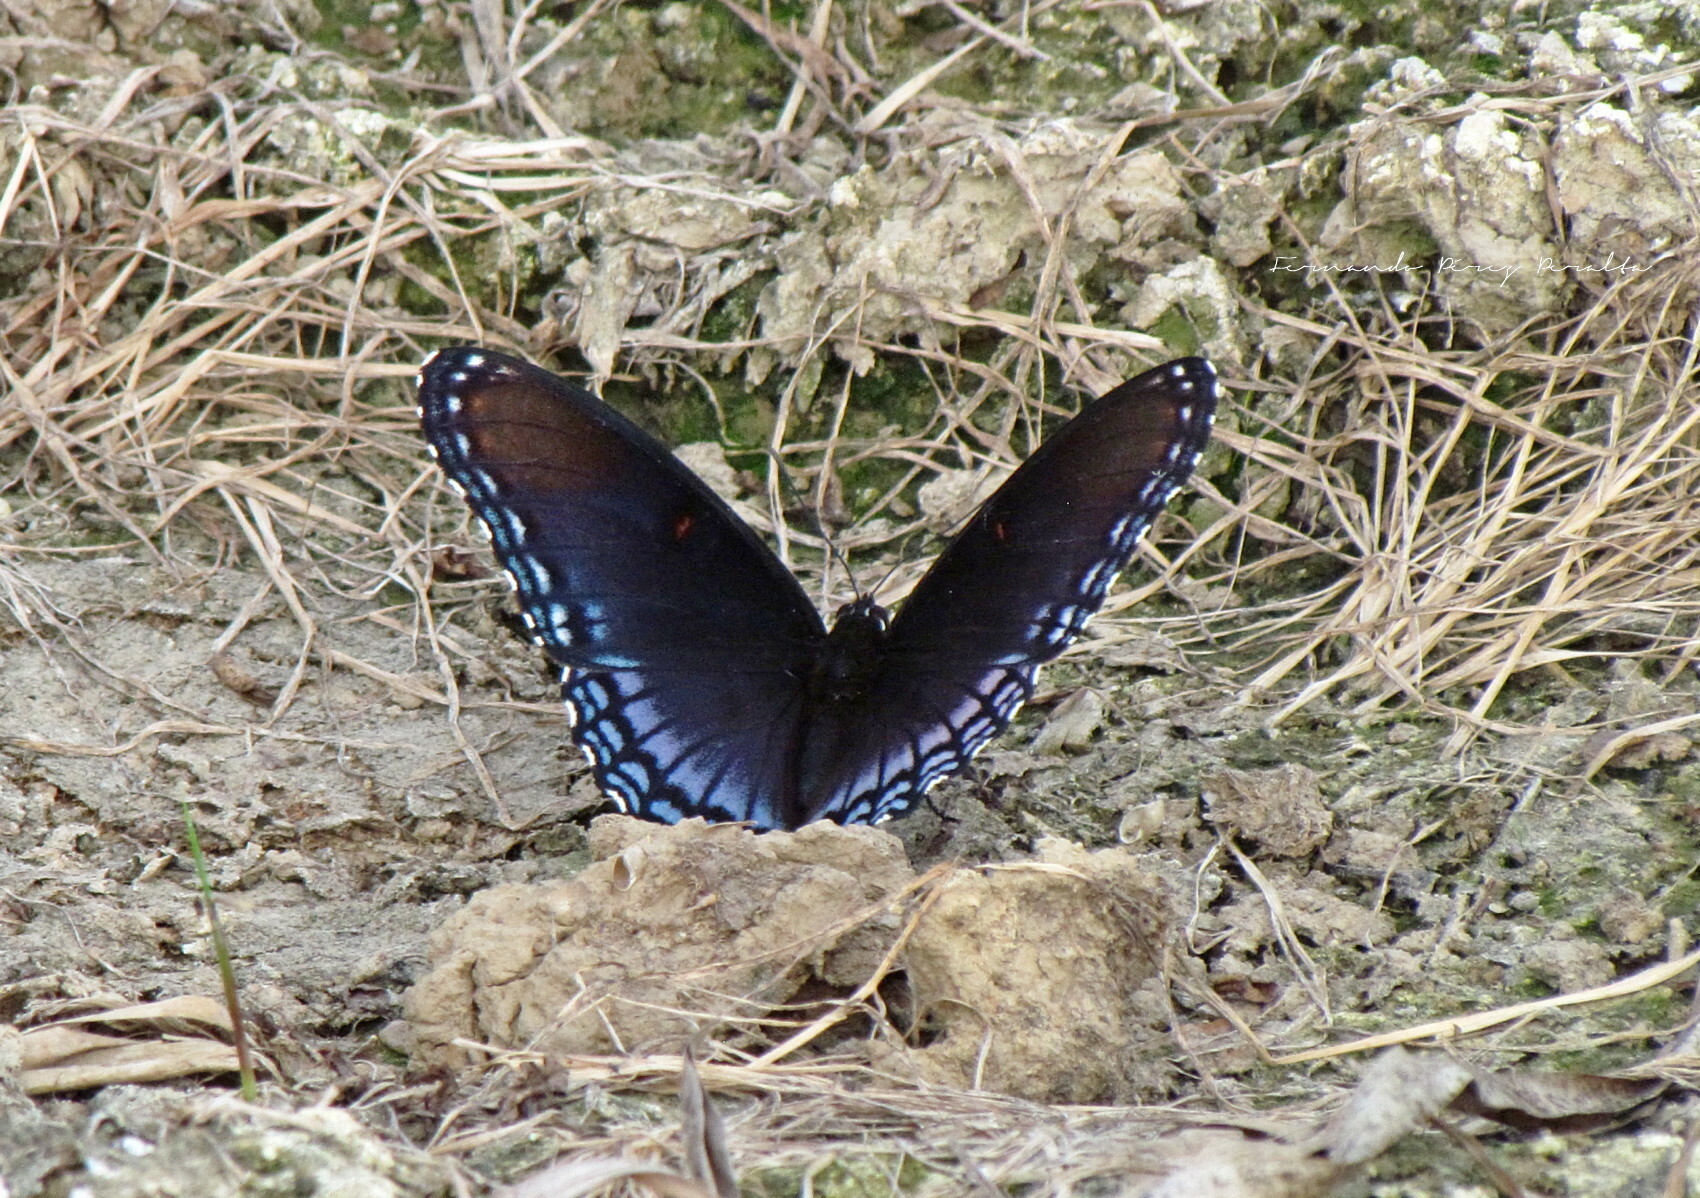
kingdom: Animalia
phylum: Arthropoda
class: Insecta
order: Lepidoptera
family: Nymphalidae
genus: Limenitis
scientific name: Limenitis astyanax
